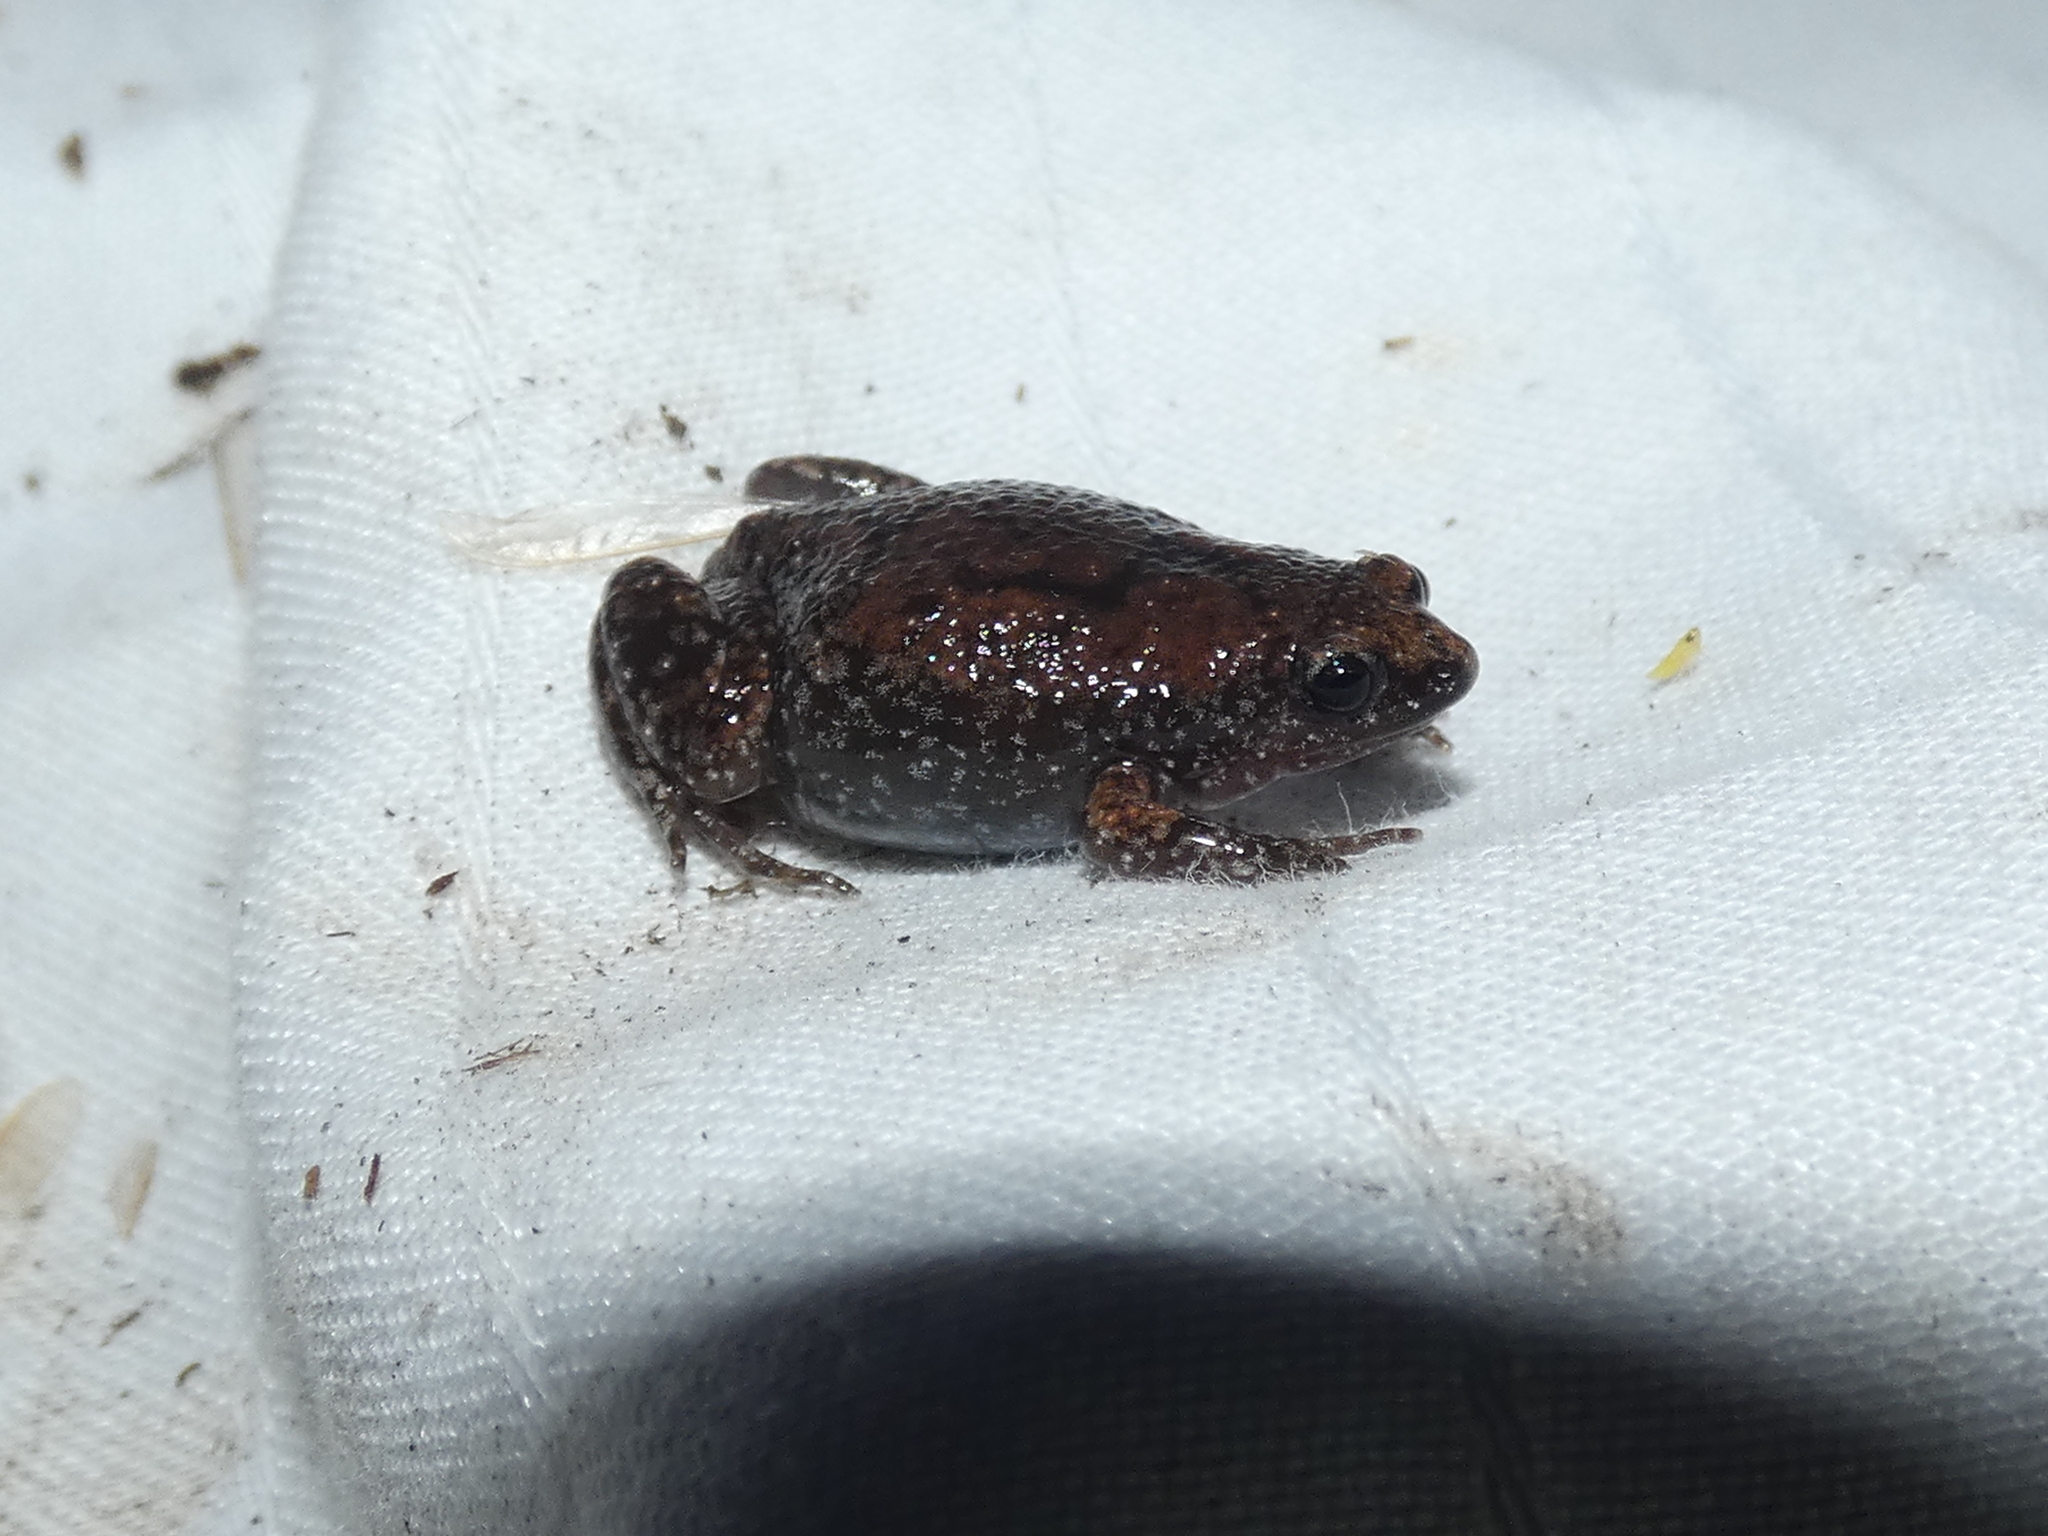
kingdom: Animalia
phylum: Chordata
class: Amphibia
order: Anura
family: Microhylidae
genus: Gastrophryne
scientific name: Gastrophryne carolinensis
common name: Eastern narrowmouth toad
